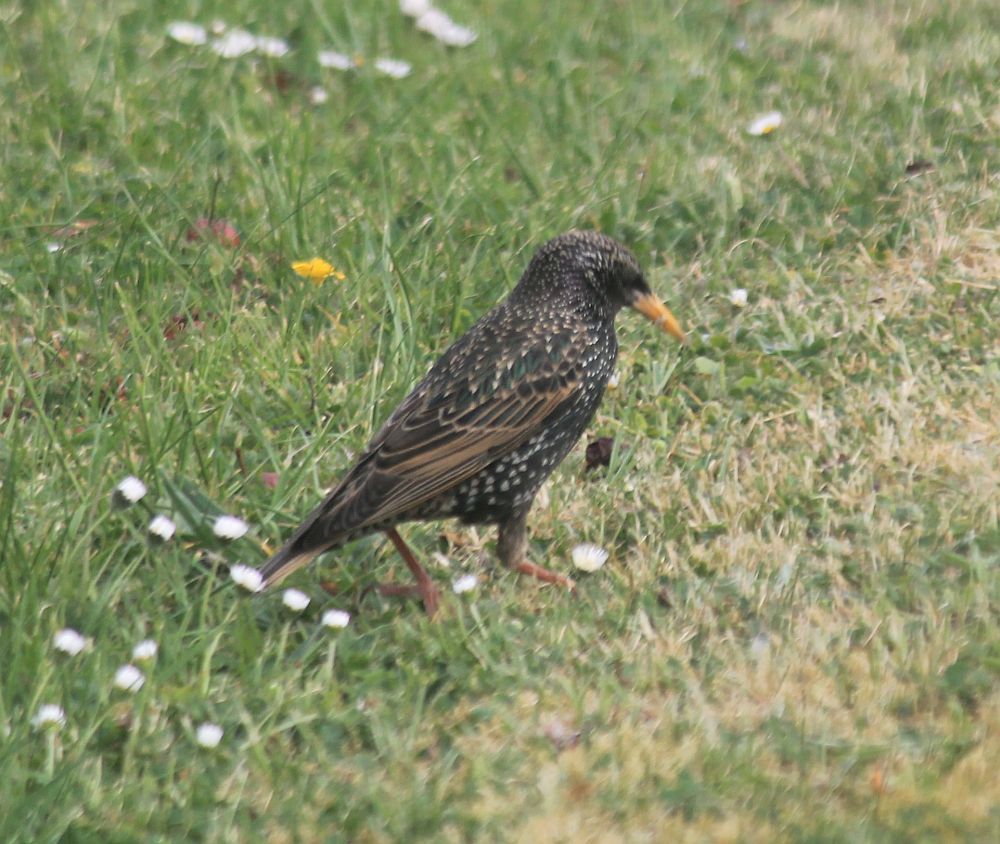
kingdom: Animalia
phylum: Chordata
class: Aves
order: Passeriformes
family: Sturnidae
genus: Sturnus
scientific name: Sturnus vulgaris
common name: Common starling
